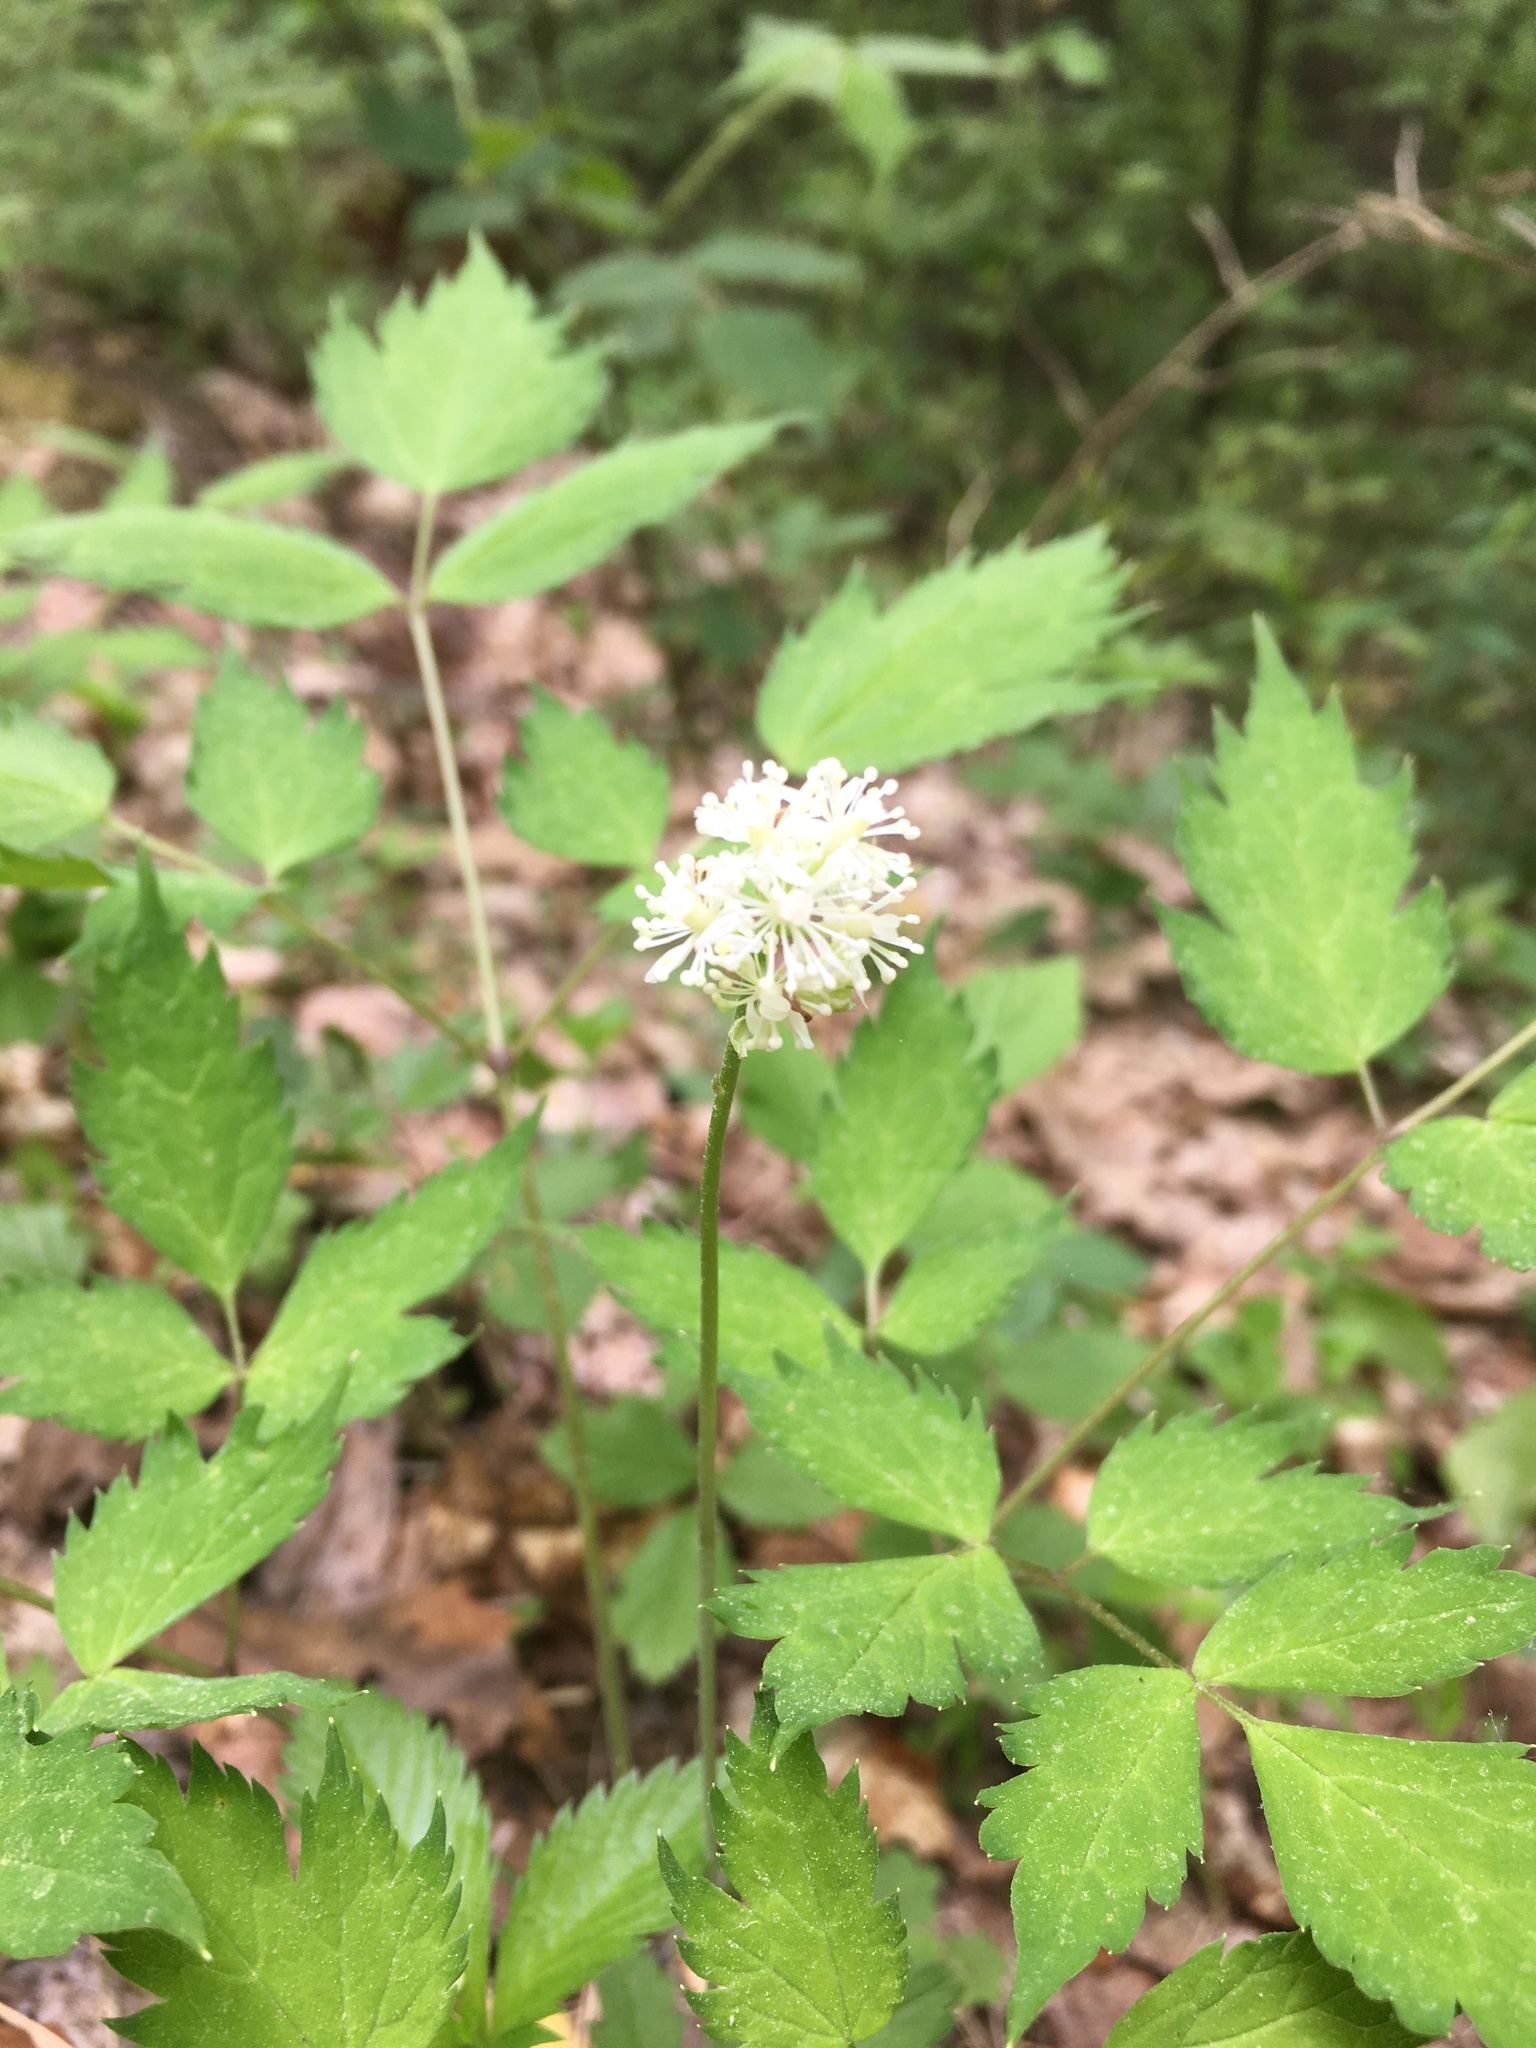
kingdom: Plantae
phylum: Tracheophyta
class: Magnoliopsida
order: Ranunculales
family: Ranunculaceae
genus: Actaea
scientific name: Actaea pachypoda
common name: Doll's-eyes
